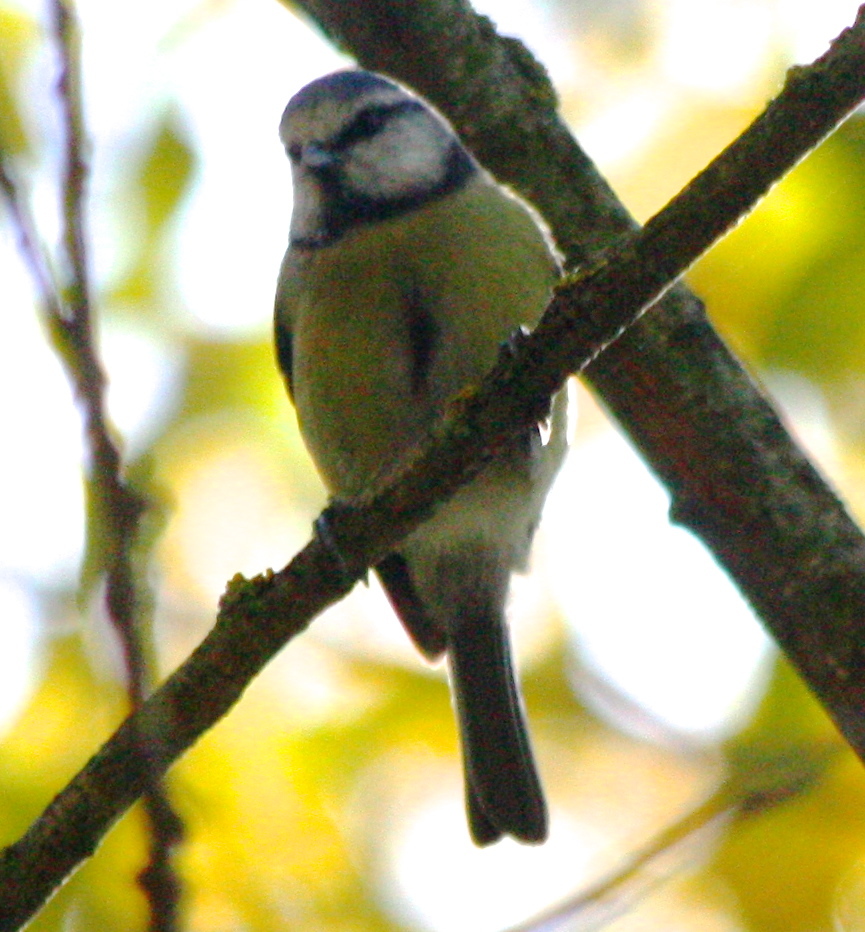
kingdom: Animalia
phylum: Chordata
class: Aves
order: Passeriformes
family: Paridae
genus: Cyanistes
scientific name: Cyanistes caeruleus
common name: Eurasian blue tit
